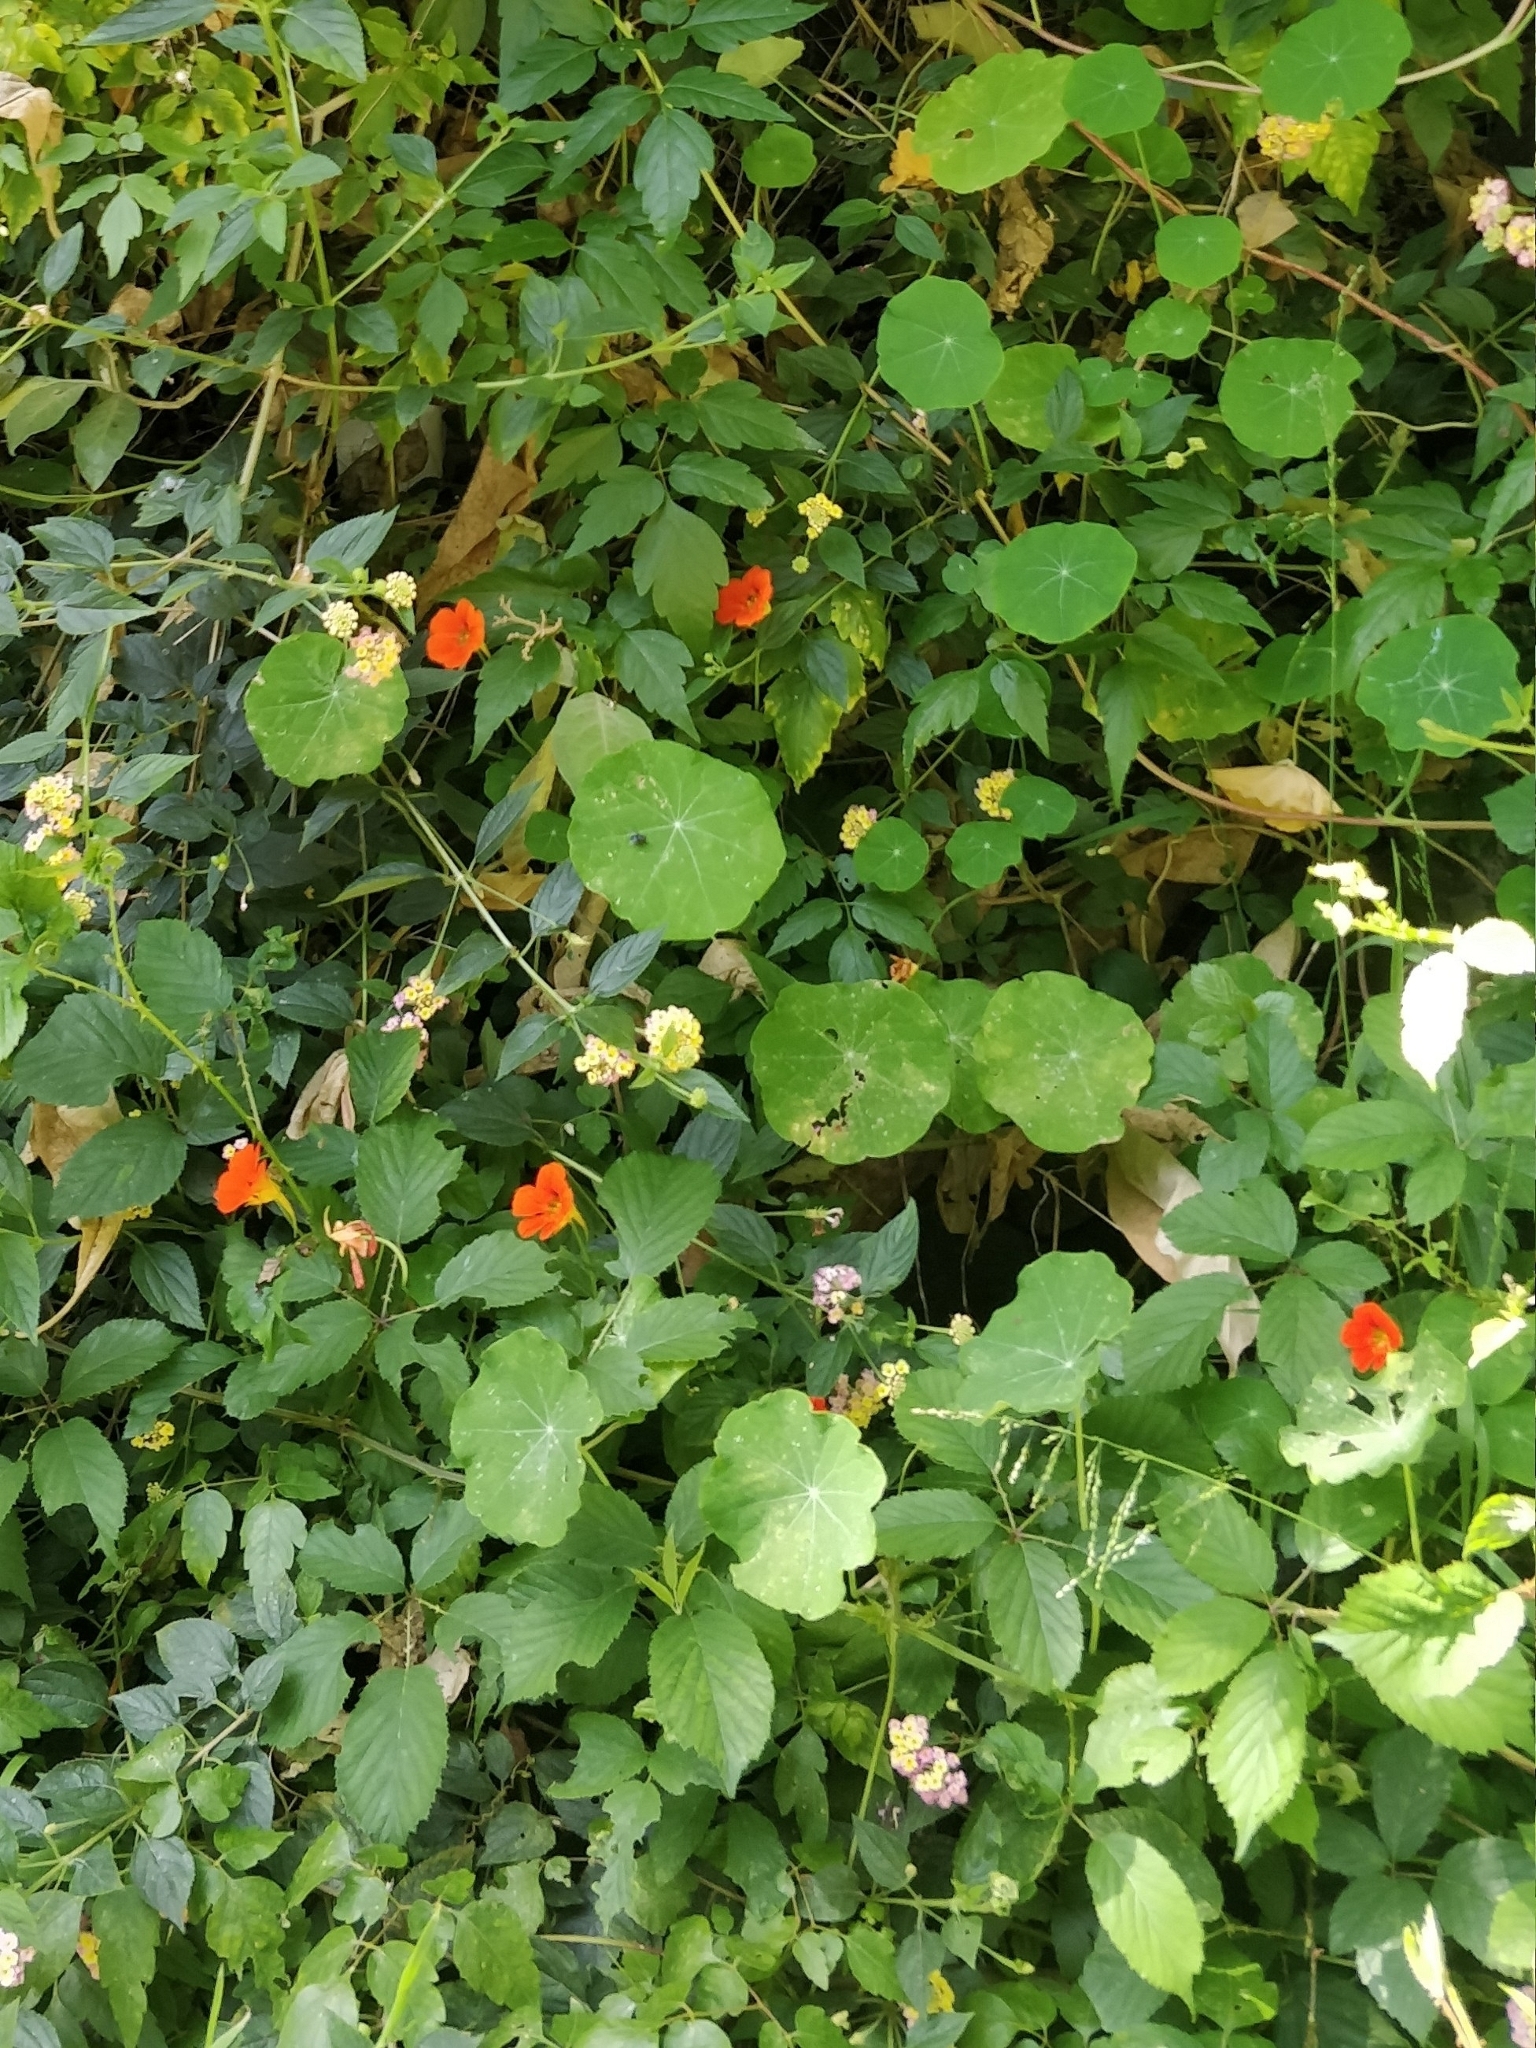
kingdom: Plantae
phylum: Tracheophyta
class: Magnoliopsida
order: Brassicales
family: Tropaeolaceae
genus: Tropaeolum
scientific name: Tropaeolum majus
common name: Nasturtium
